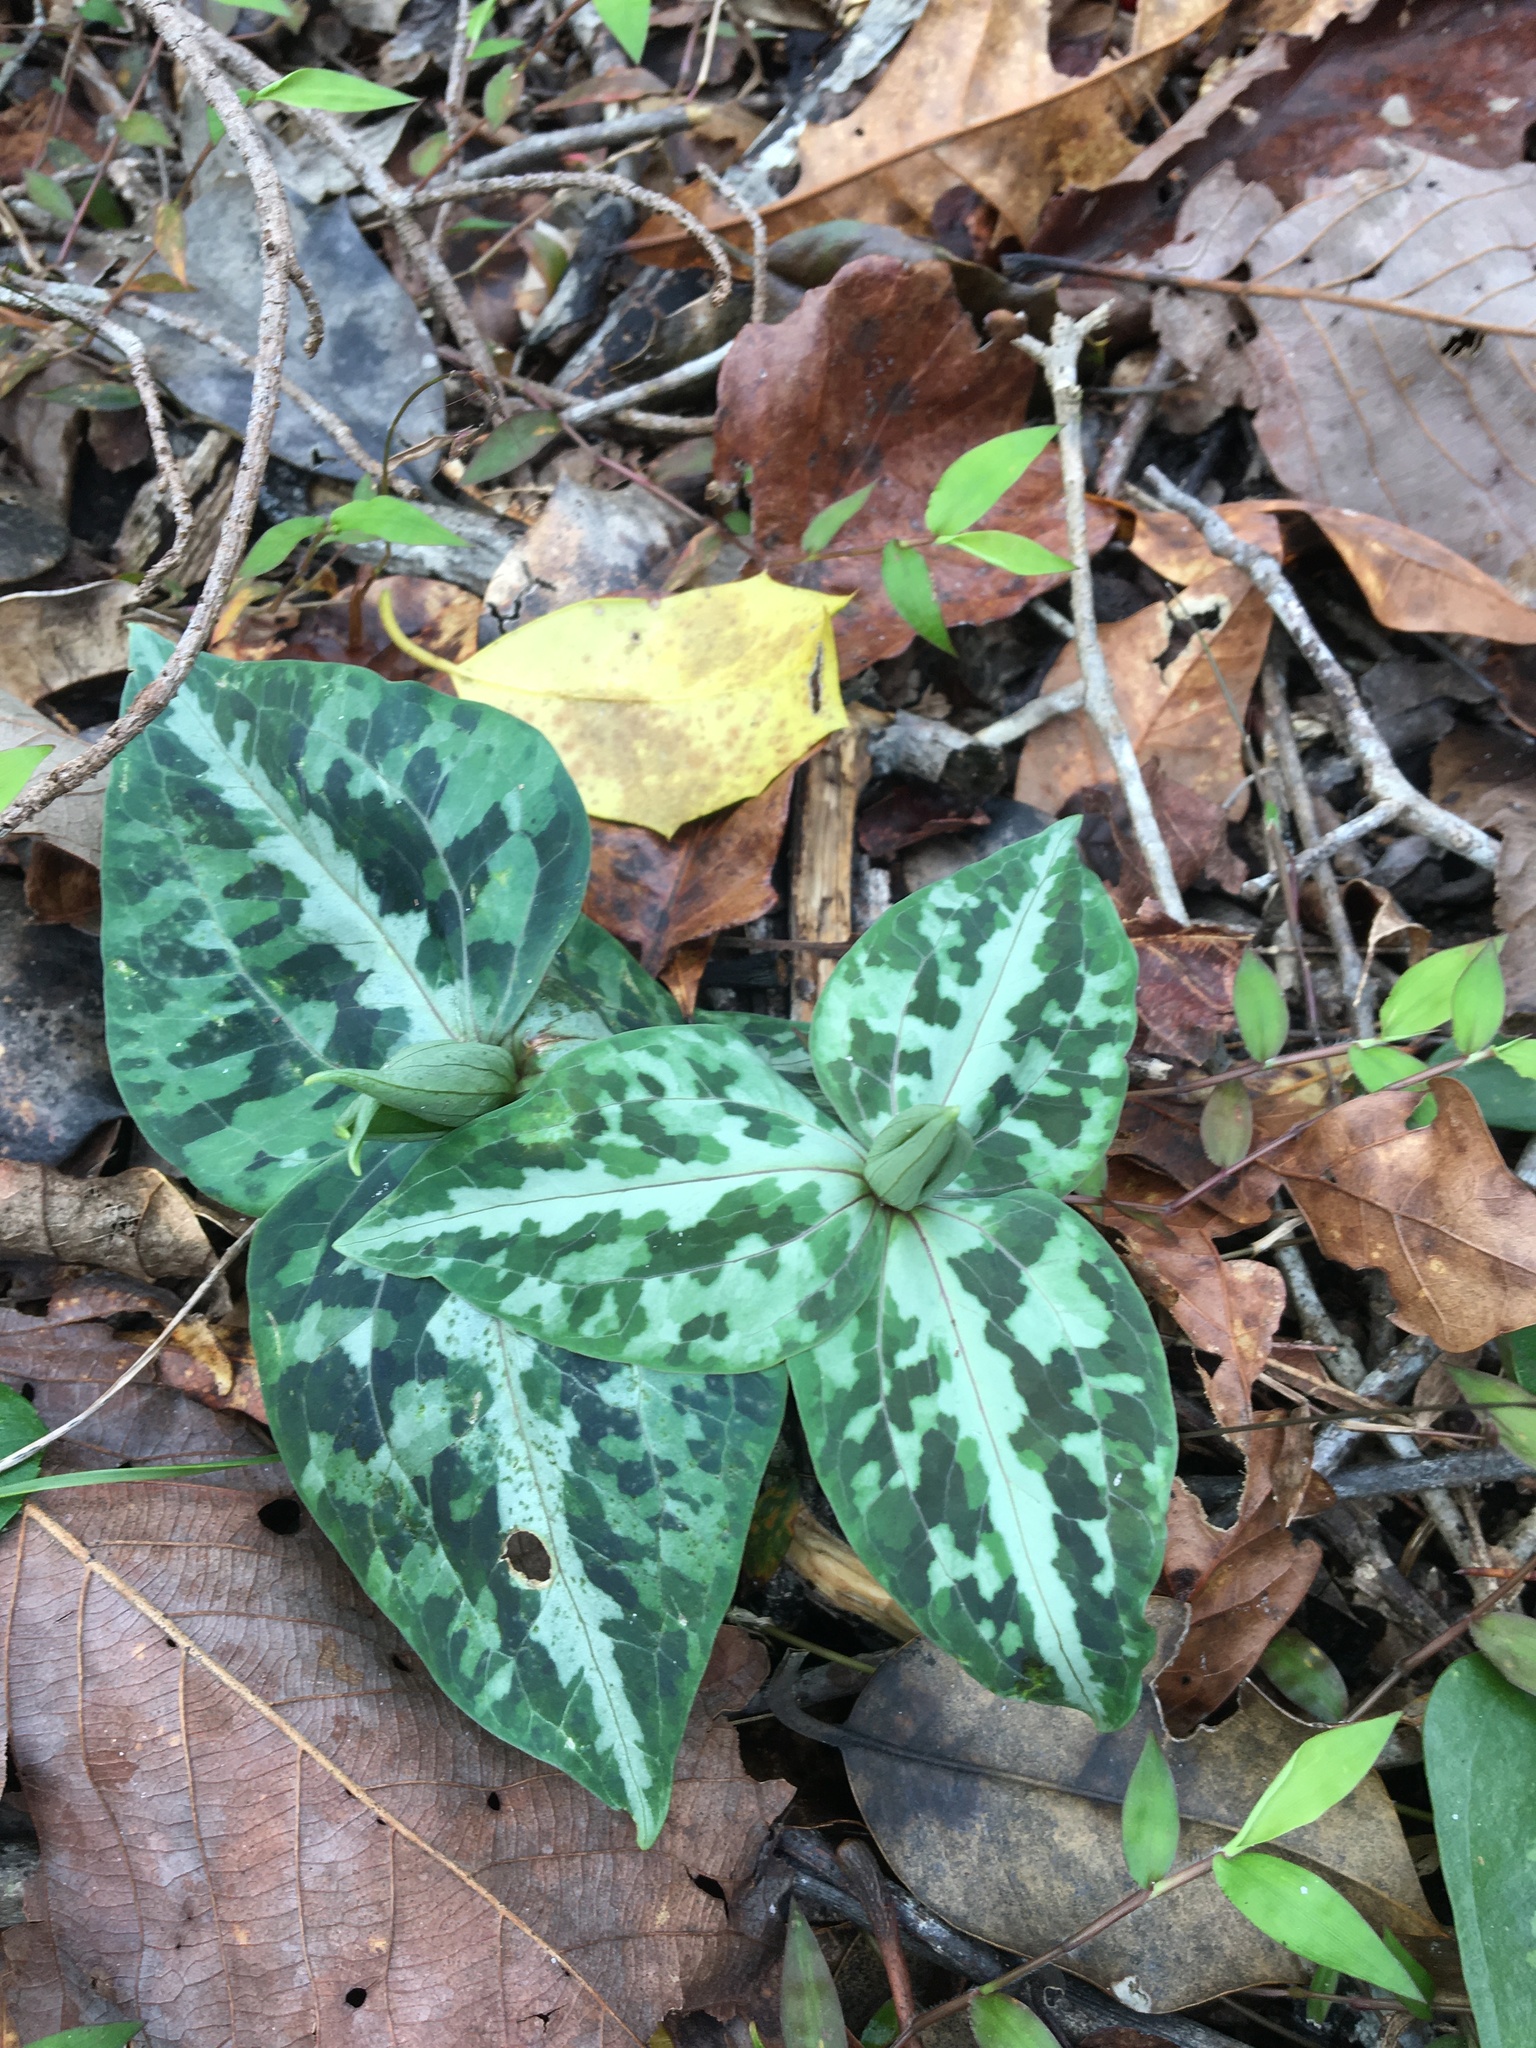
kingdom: Plantae
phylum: Tracheophyta
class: Liliopsida
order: Liliales
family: Melanthiaceae
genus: Trillium
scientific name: Trillium underwoodii
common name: Longbract wakerobin
